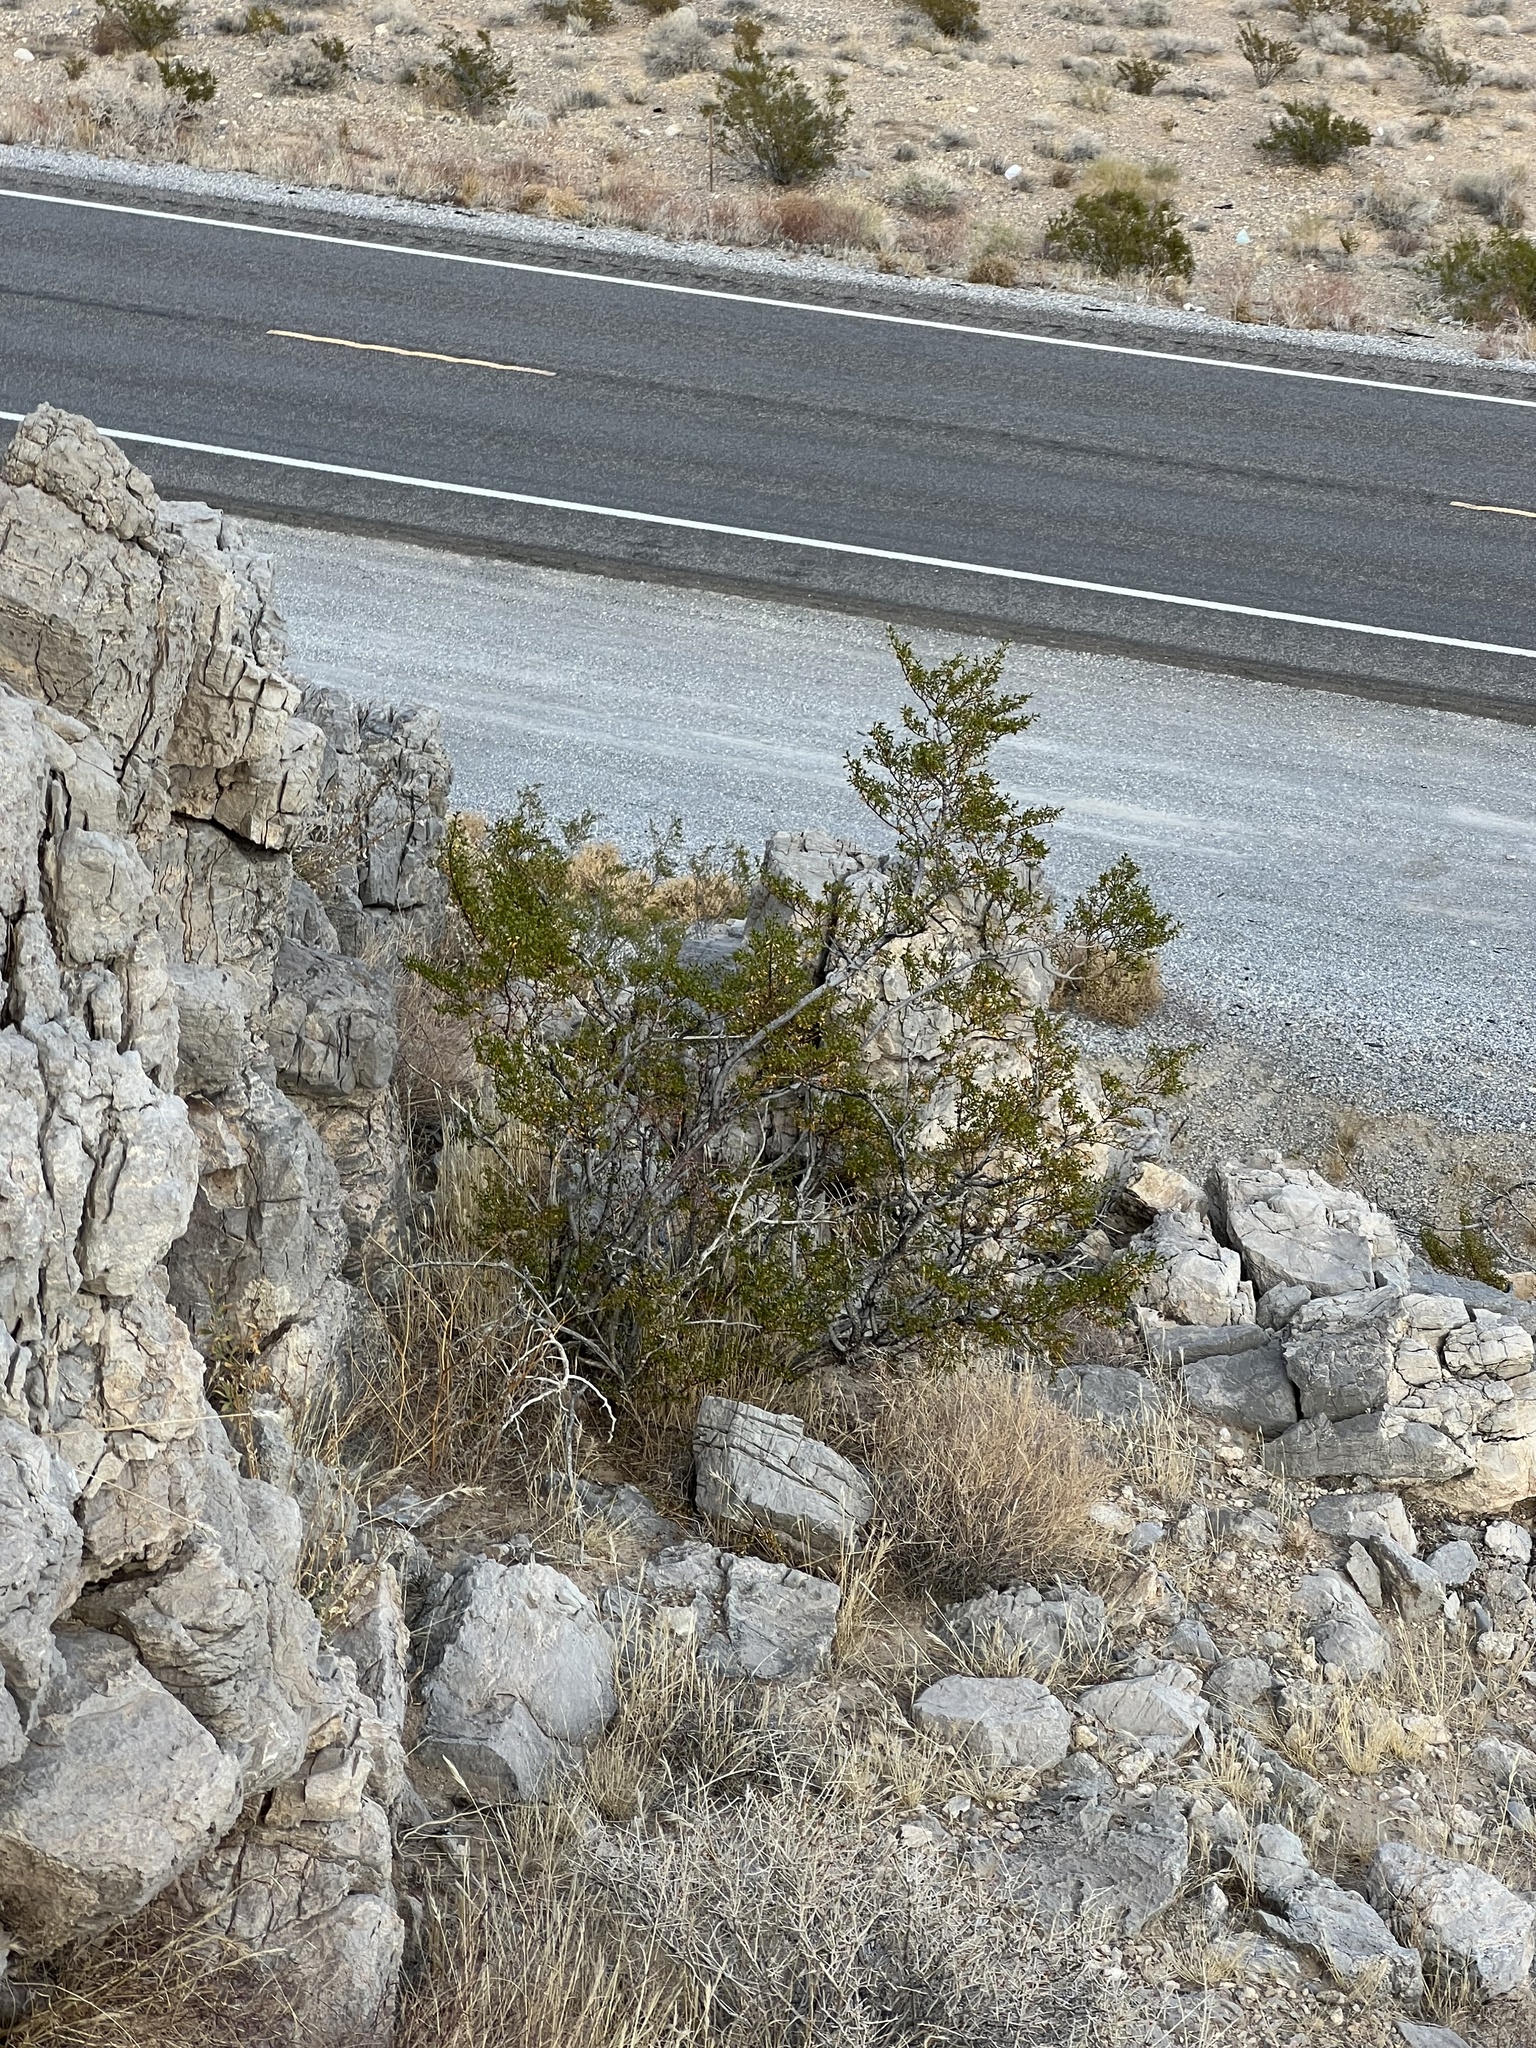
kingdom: Plantae
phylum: Tracheophyta
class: Magnoliopsida
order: Zygophyllales
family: Zygophyllaceae
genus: Larrea
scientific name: Larrea tridentata
